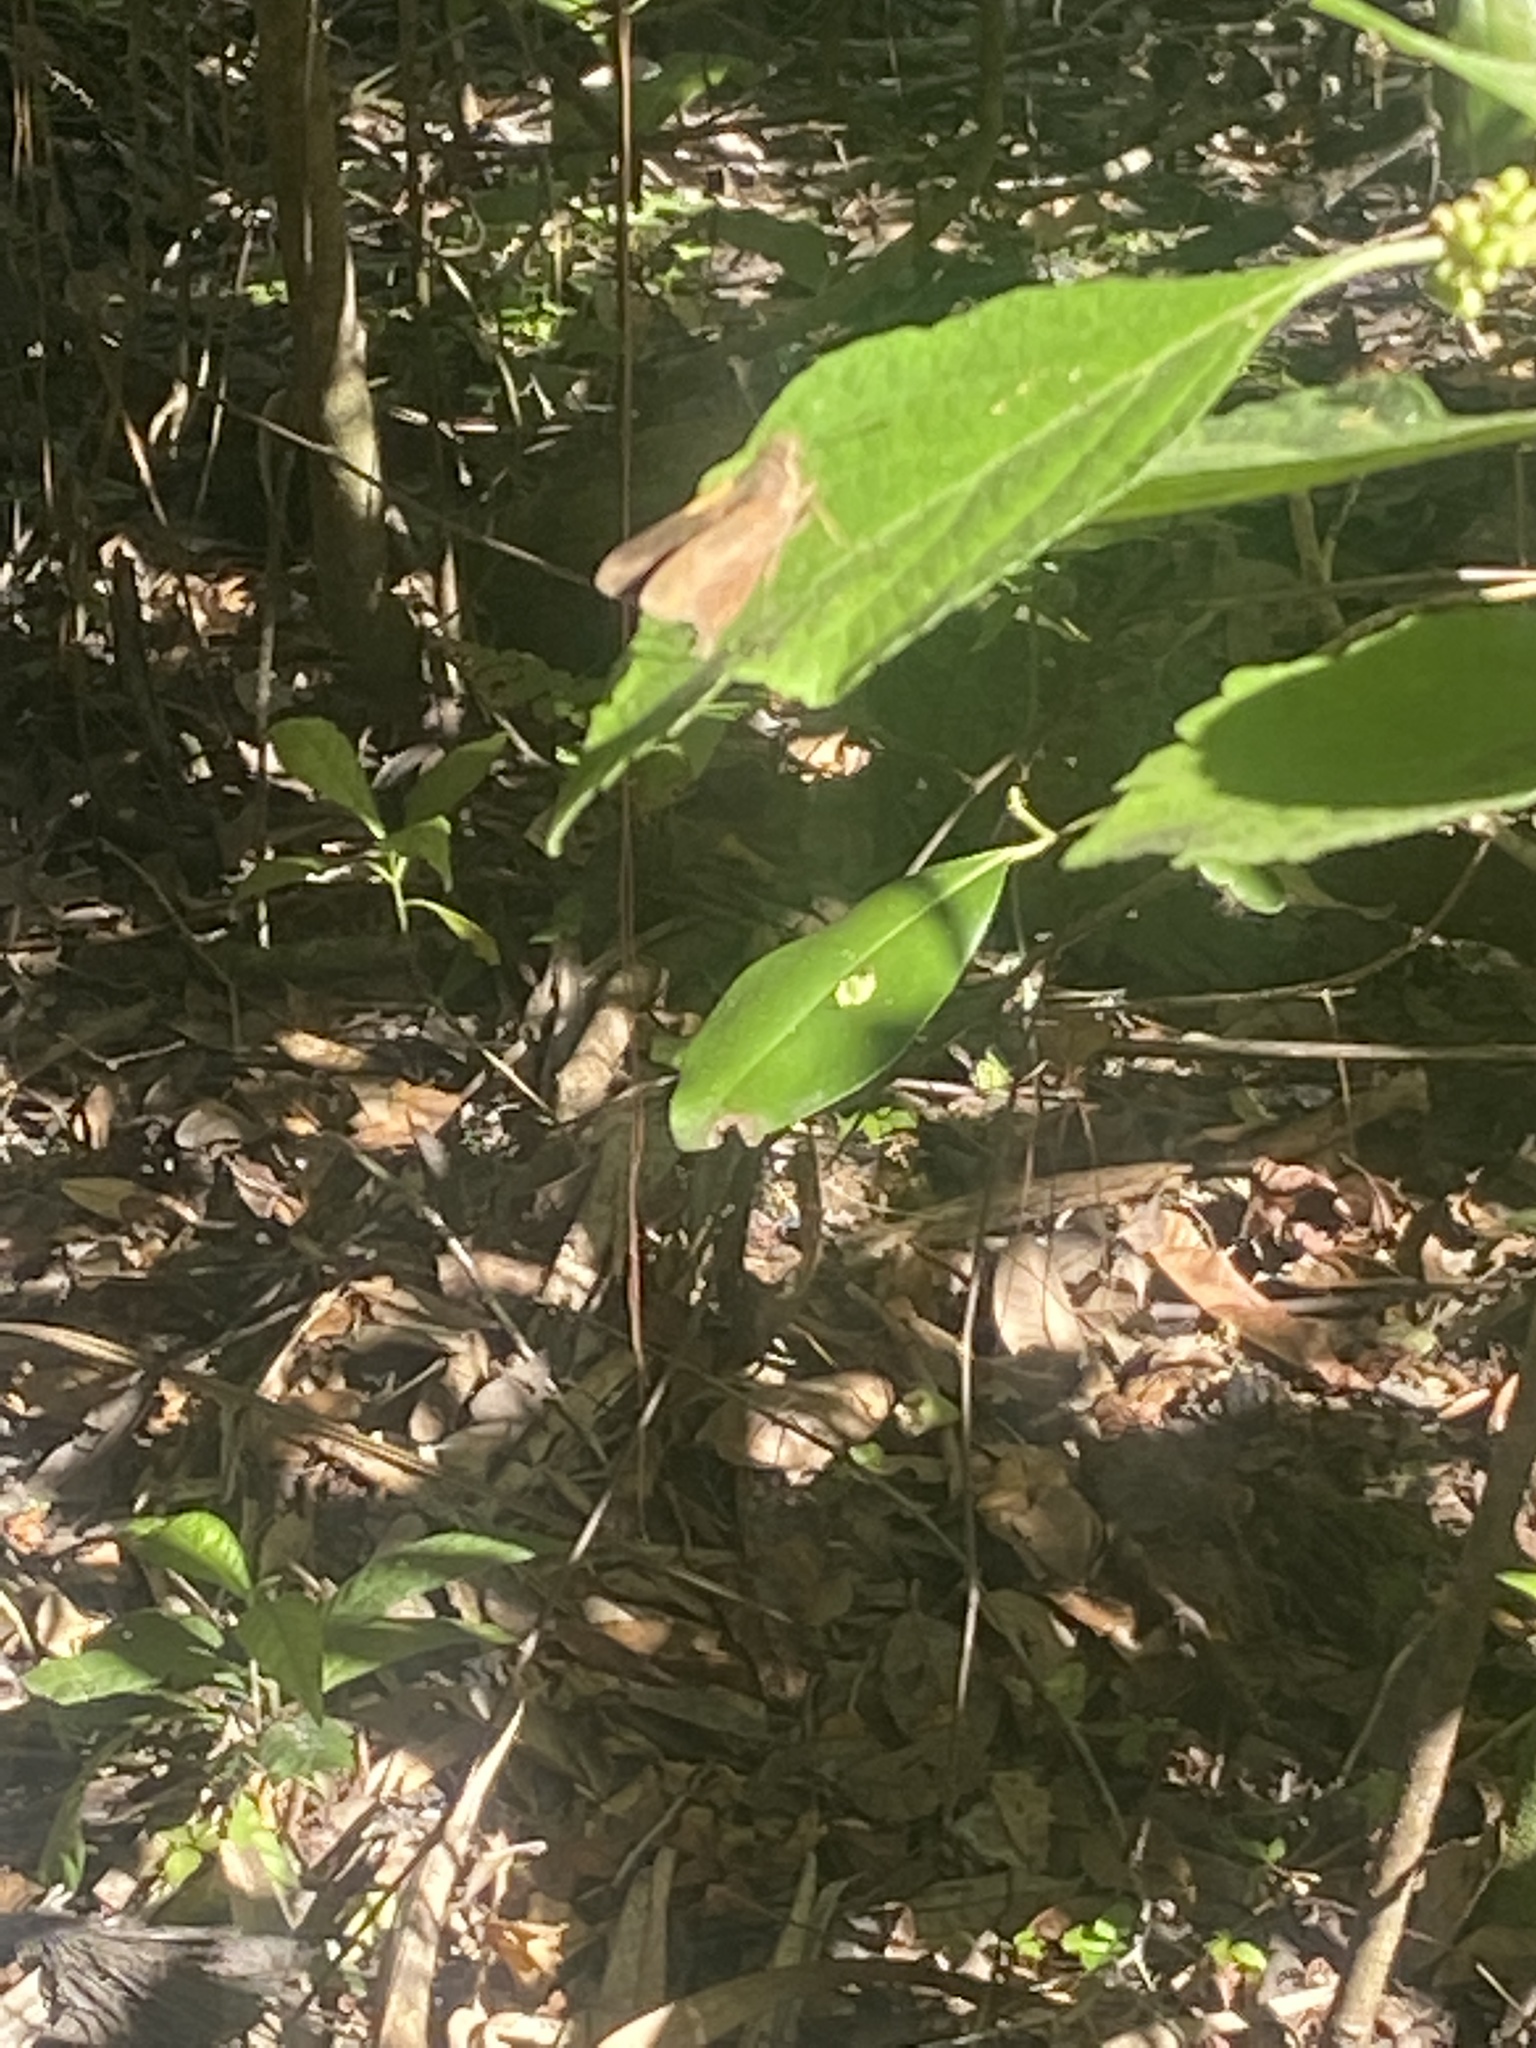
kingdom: Animalia
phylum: Arthropoda
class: Insecta
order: Lepidoptera
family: Hesperiidae
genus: Asbolis
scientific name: Asbolis capucinus
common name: Monk skipper
